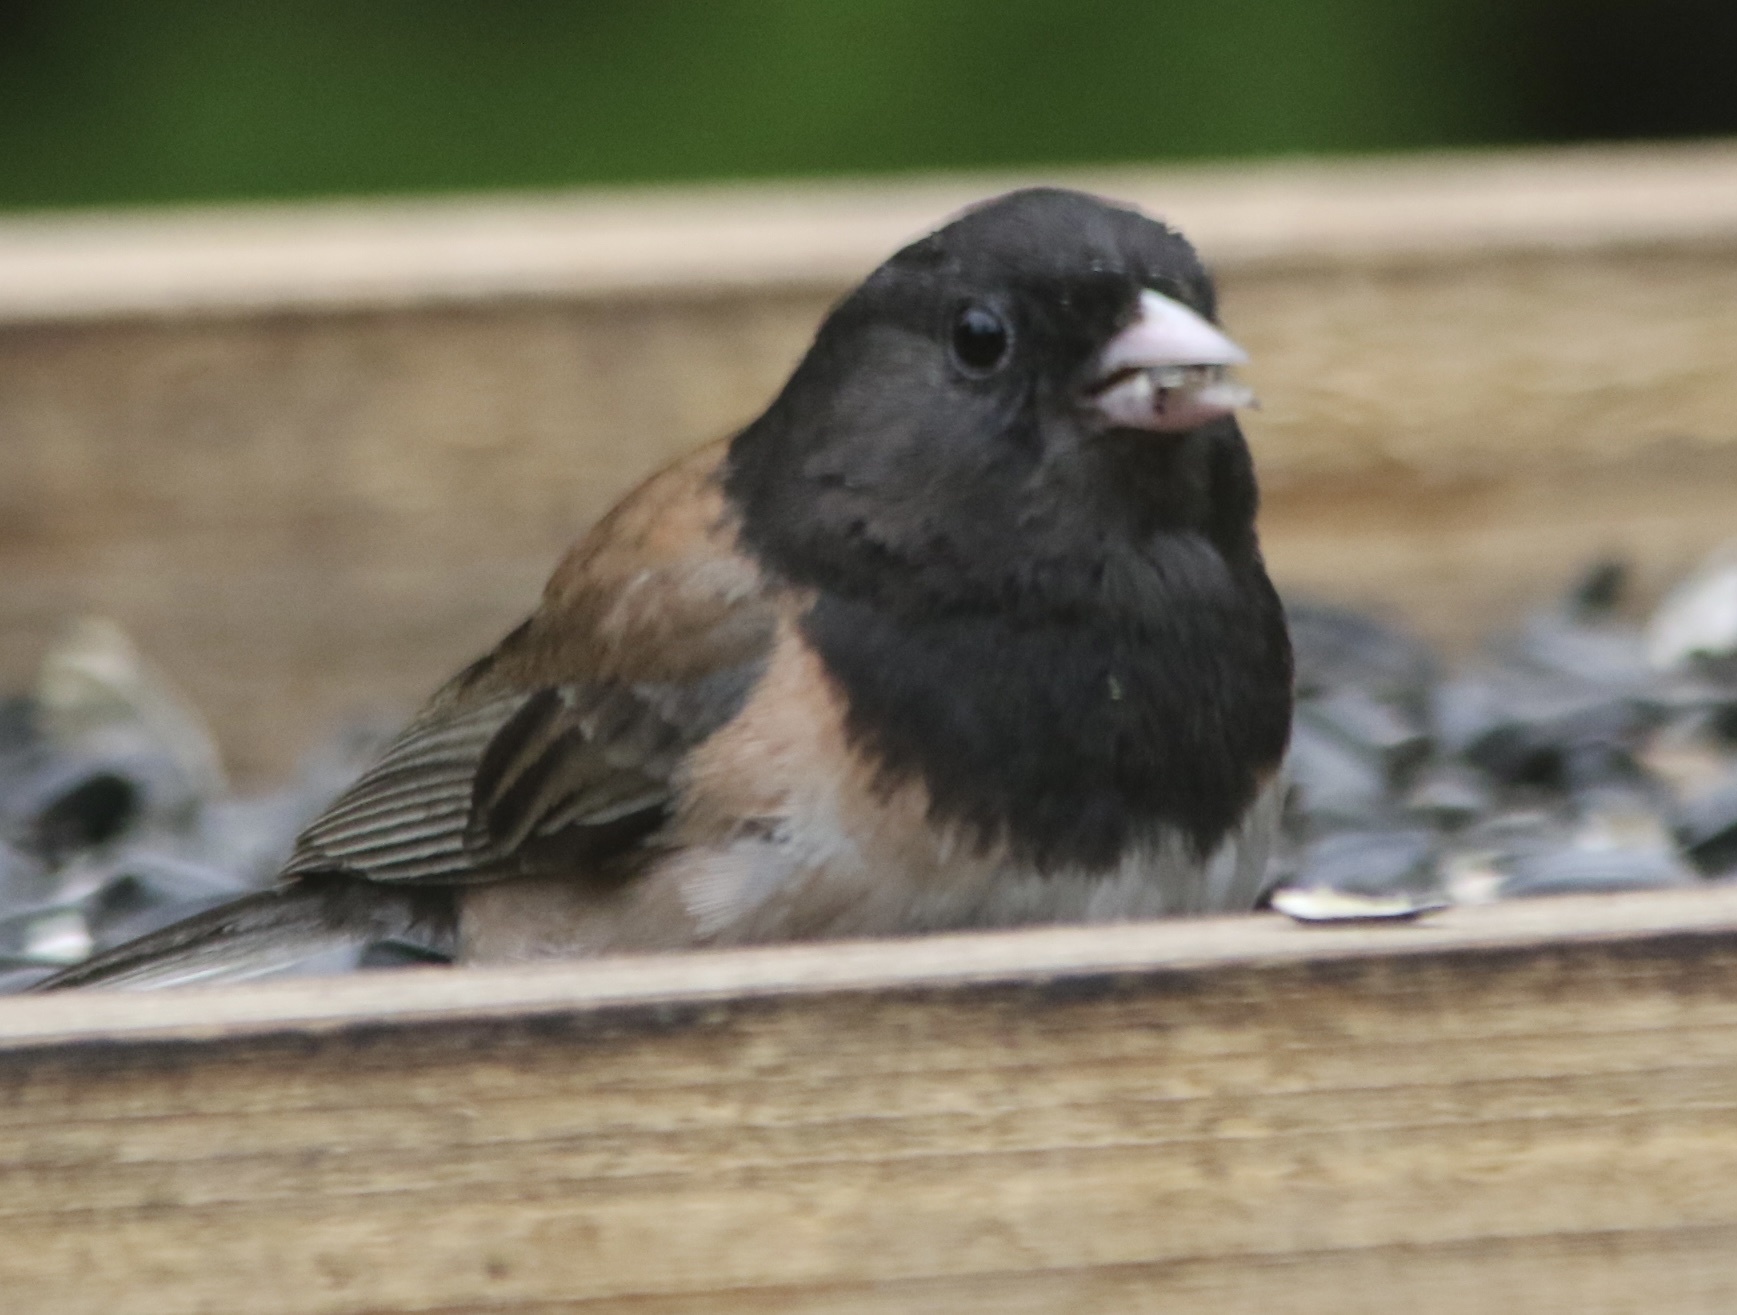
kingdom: Animalia
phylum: Chordata
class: Aves
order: Passeriformes
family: Passerellidae
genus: Junco
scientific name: Junco hyemalis
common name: Dark-eyed junco
